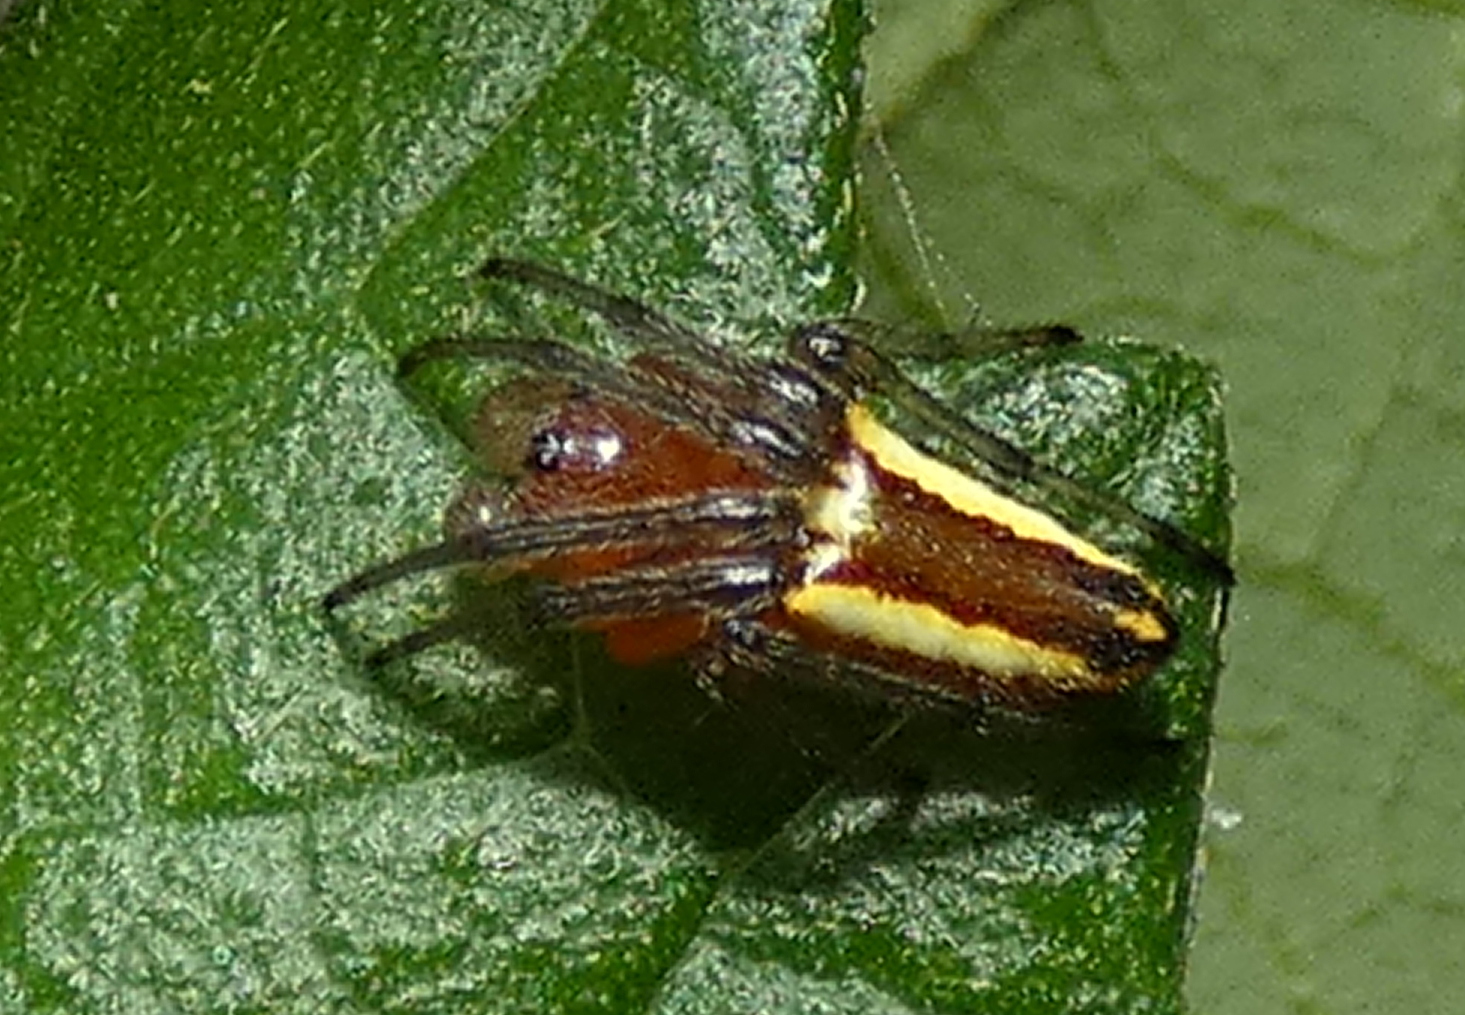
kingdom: Animalia
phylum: Arthropoda
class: Arachnida
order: Araneae
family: Araneidae
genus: Alpaida
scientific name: Alpaida bicornuta
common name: Orb weavers
